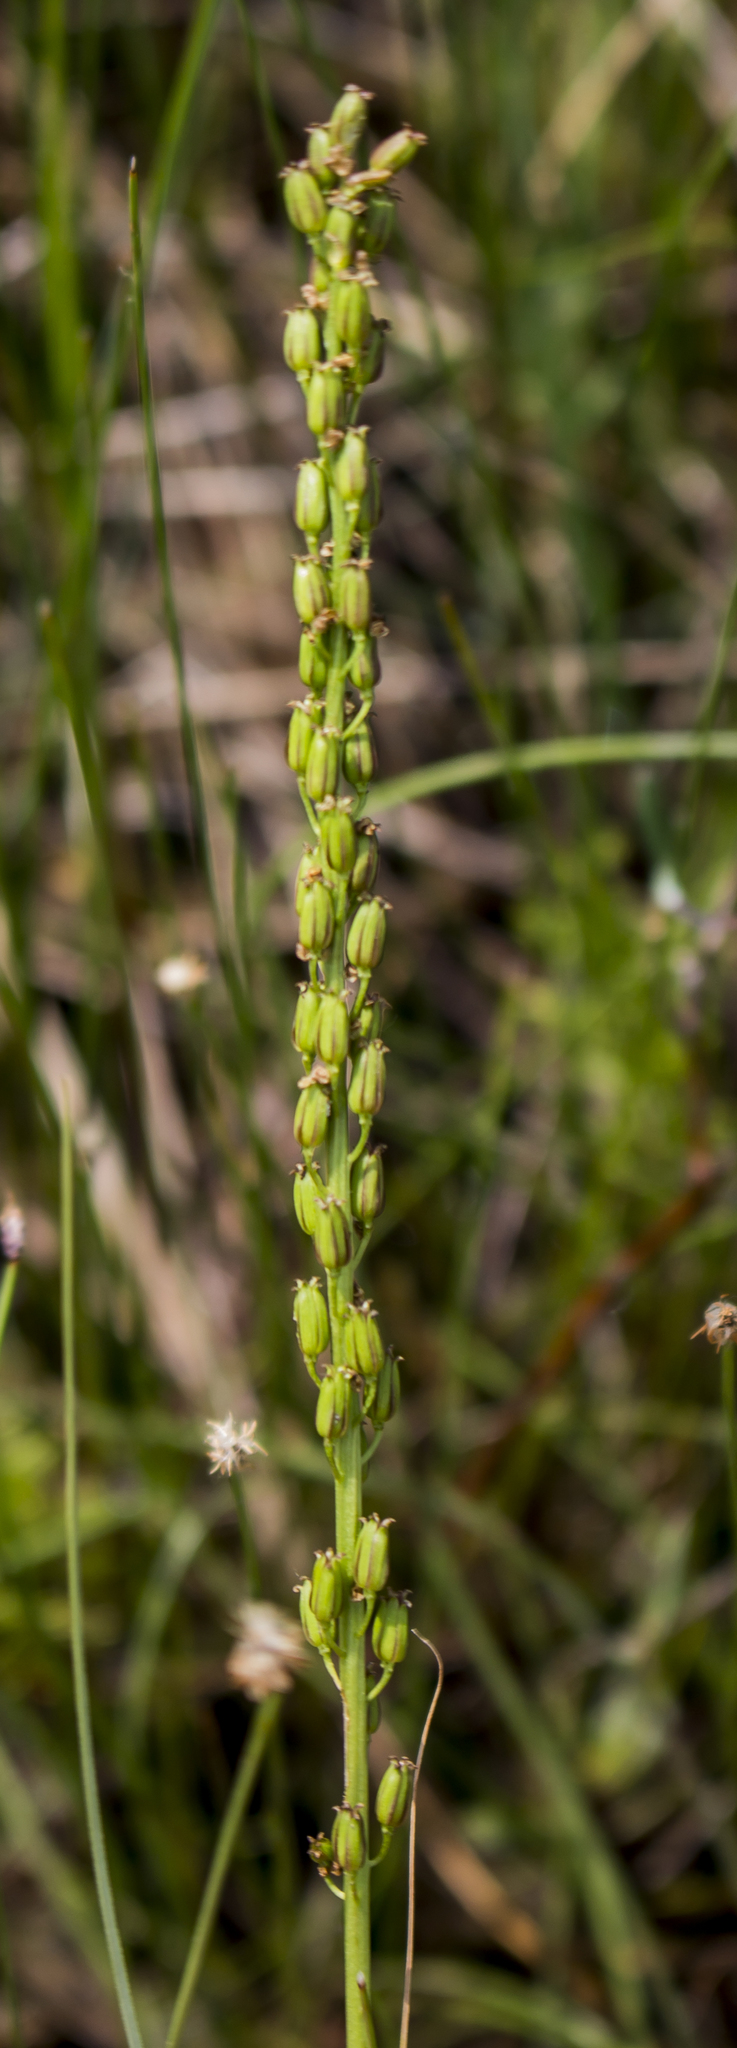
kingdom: Plantae
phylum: Tracheophyta
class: Liliopsida
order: Alismatales
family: Juncaginaceae
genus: Triglochin
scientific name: Triglochin maritima
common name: Sea arrowgrass
